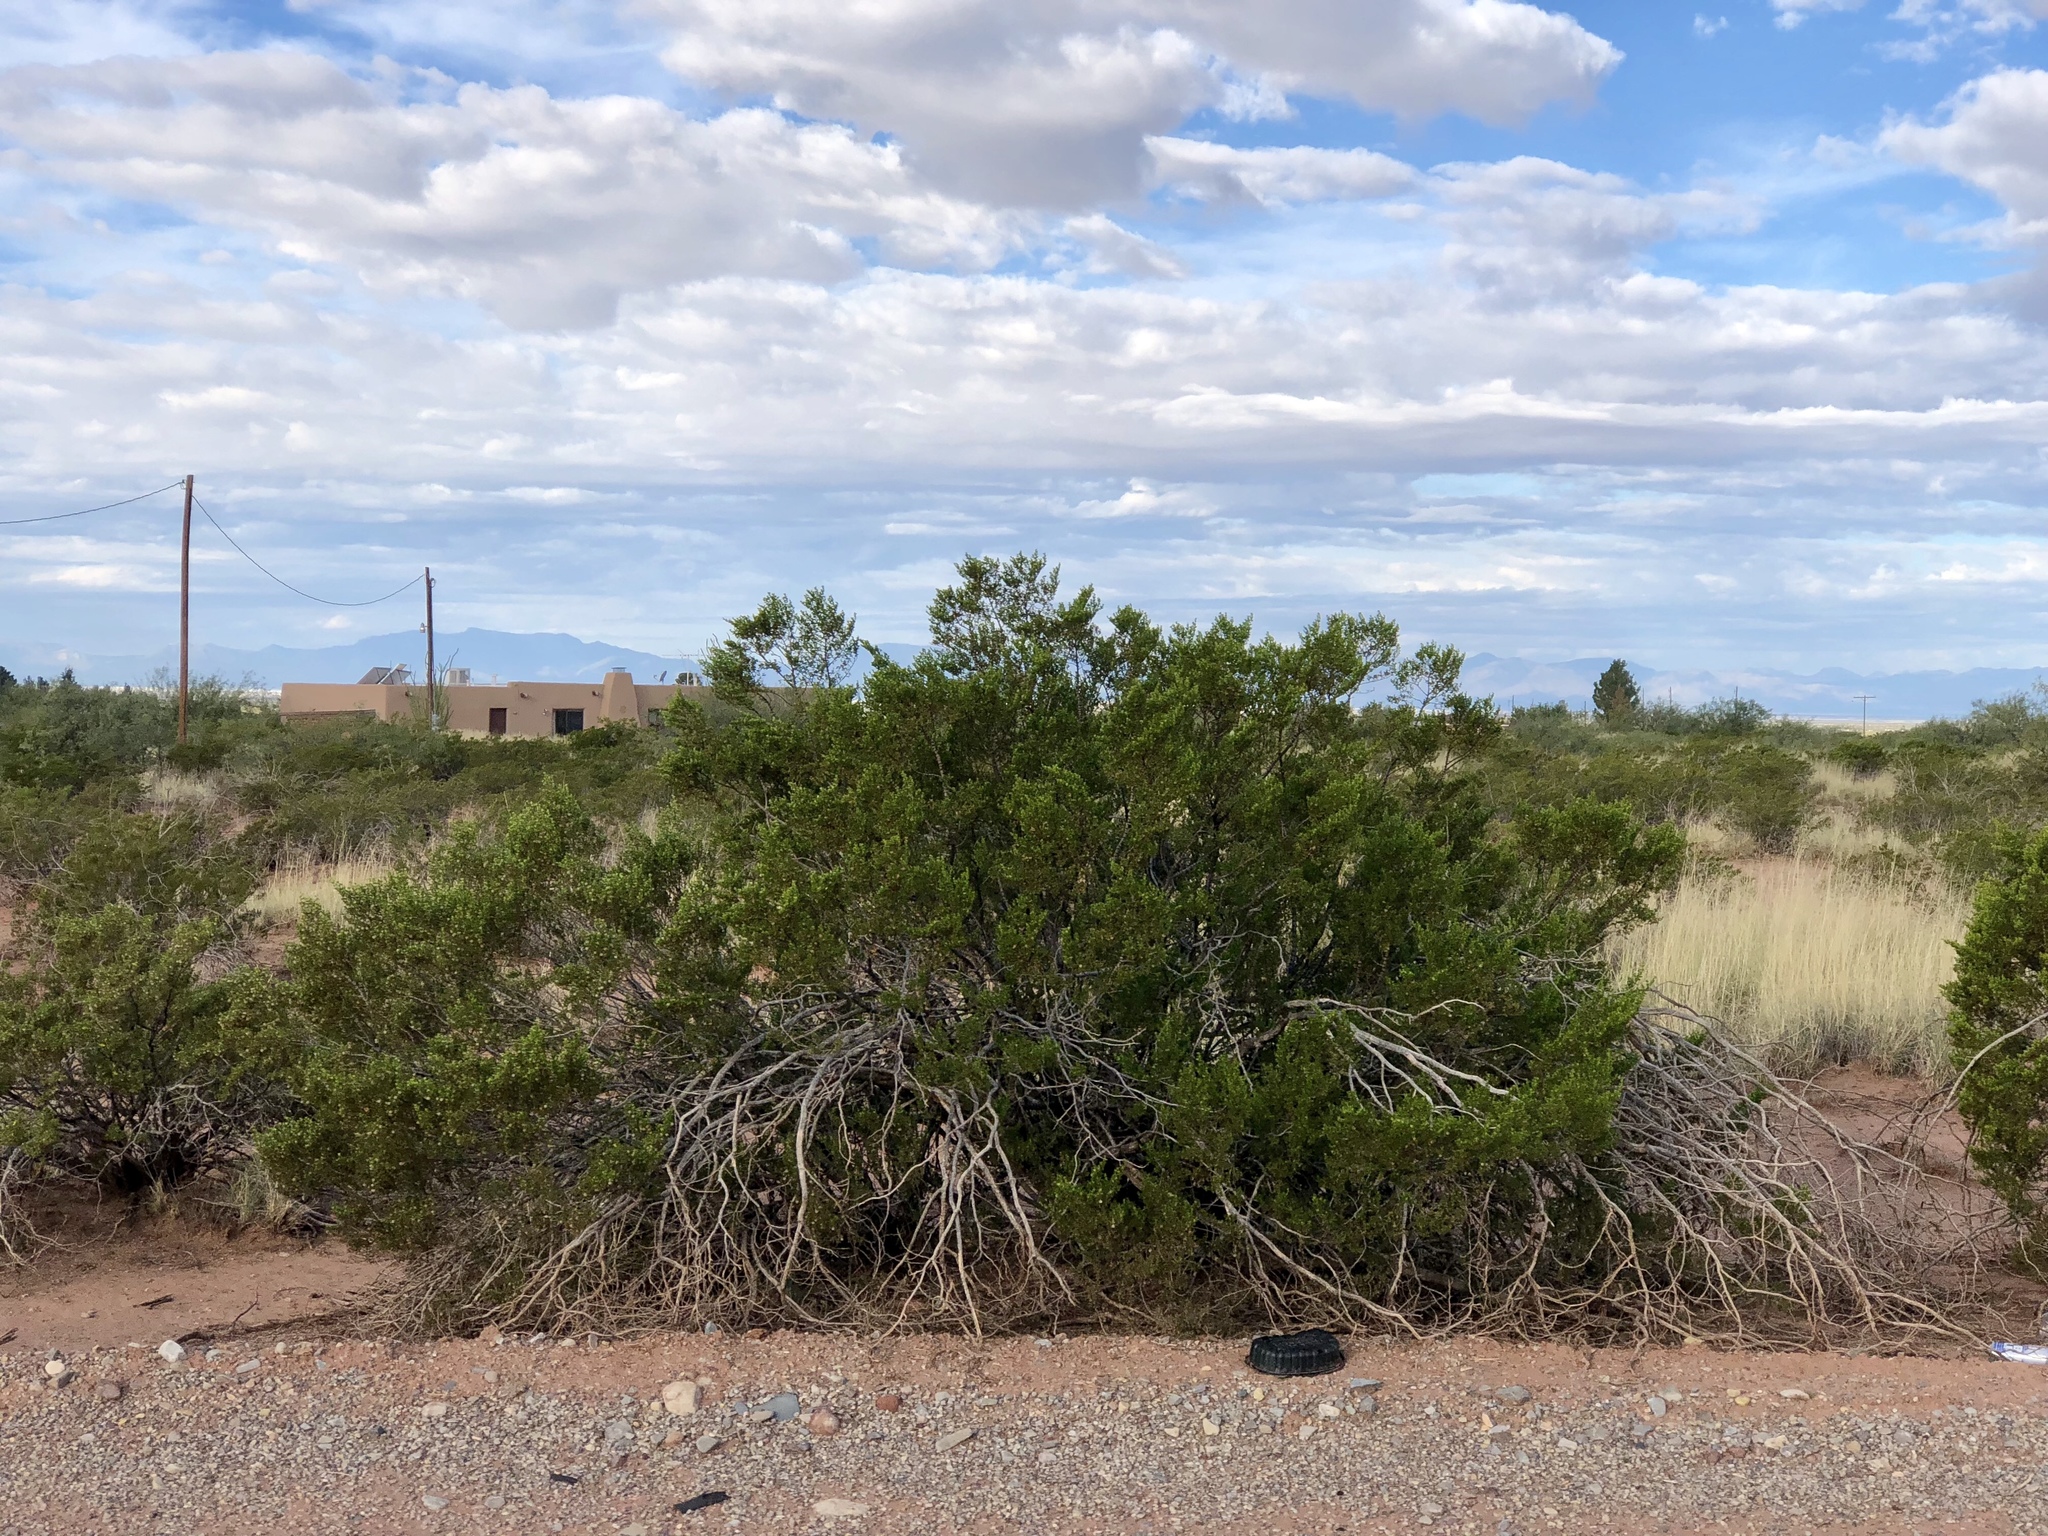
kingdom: Plantae
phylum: Tracheophyta
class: Magnoliopsida
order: Zygophyllales
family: Zygophyllaceae
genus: Larrea
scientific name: Larrea tridentata
